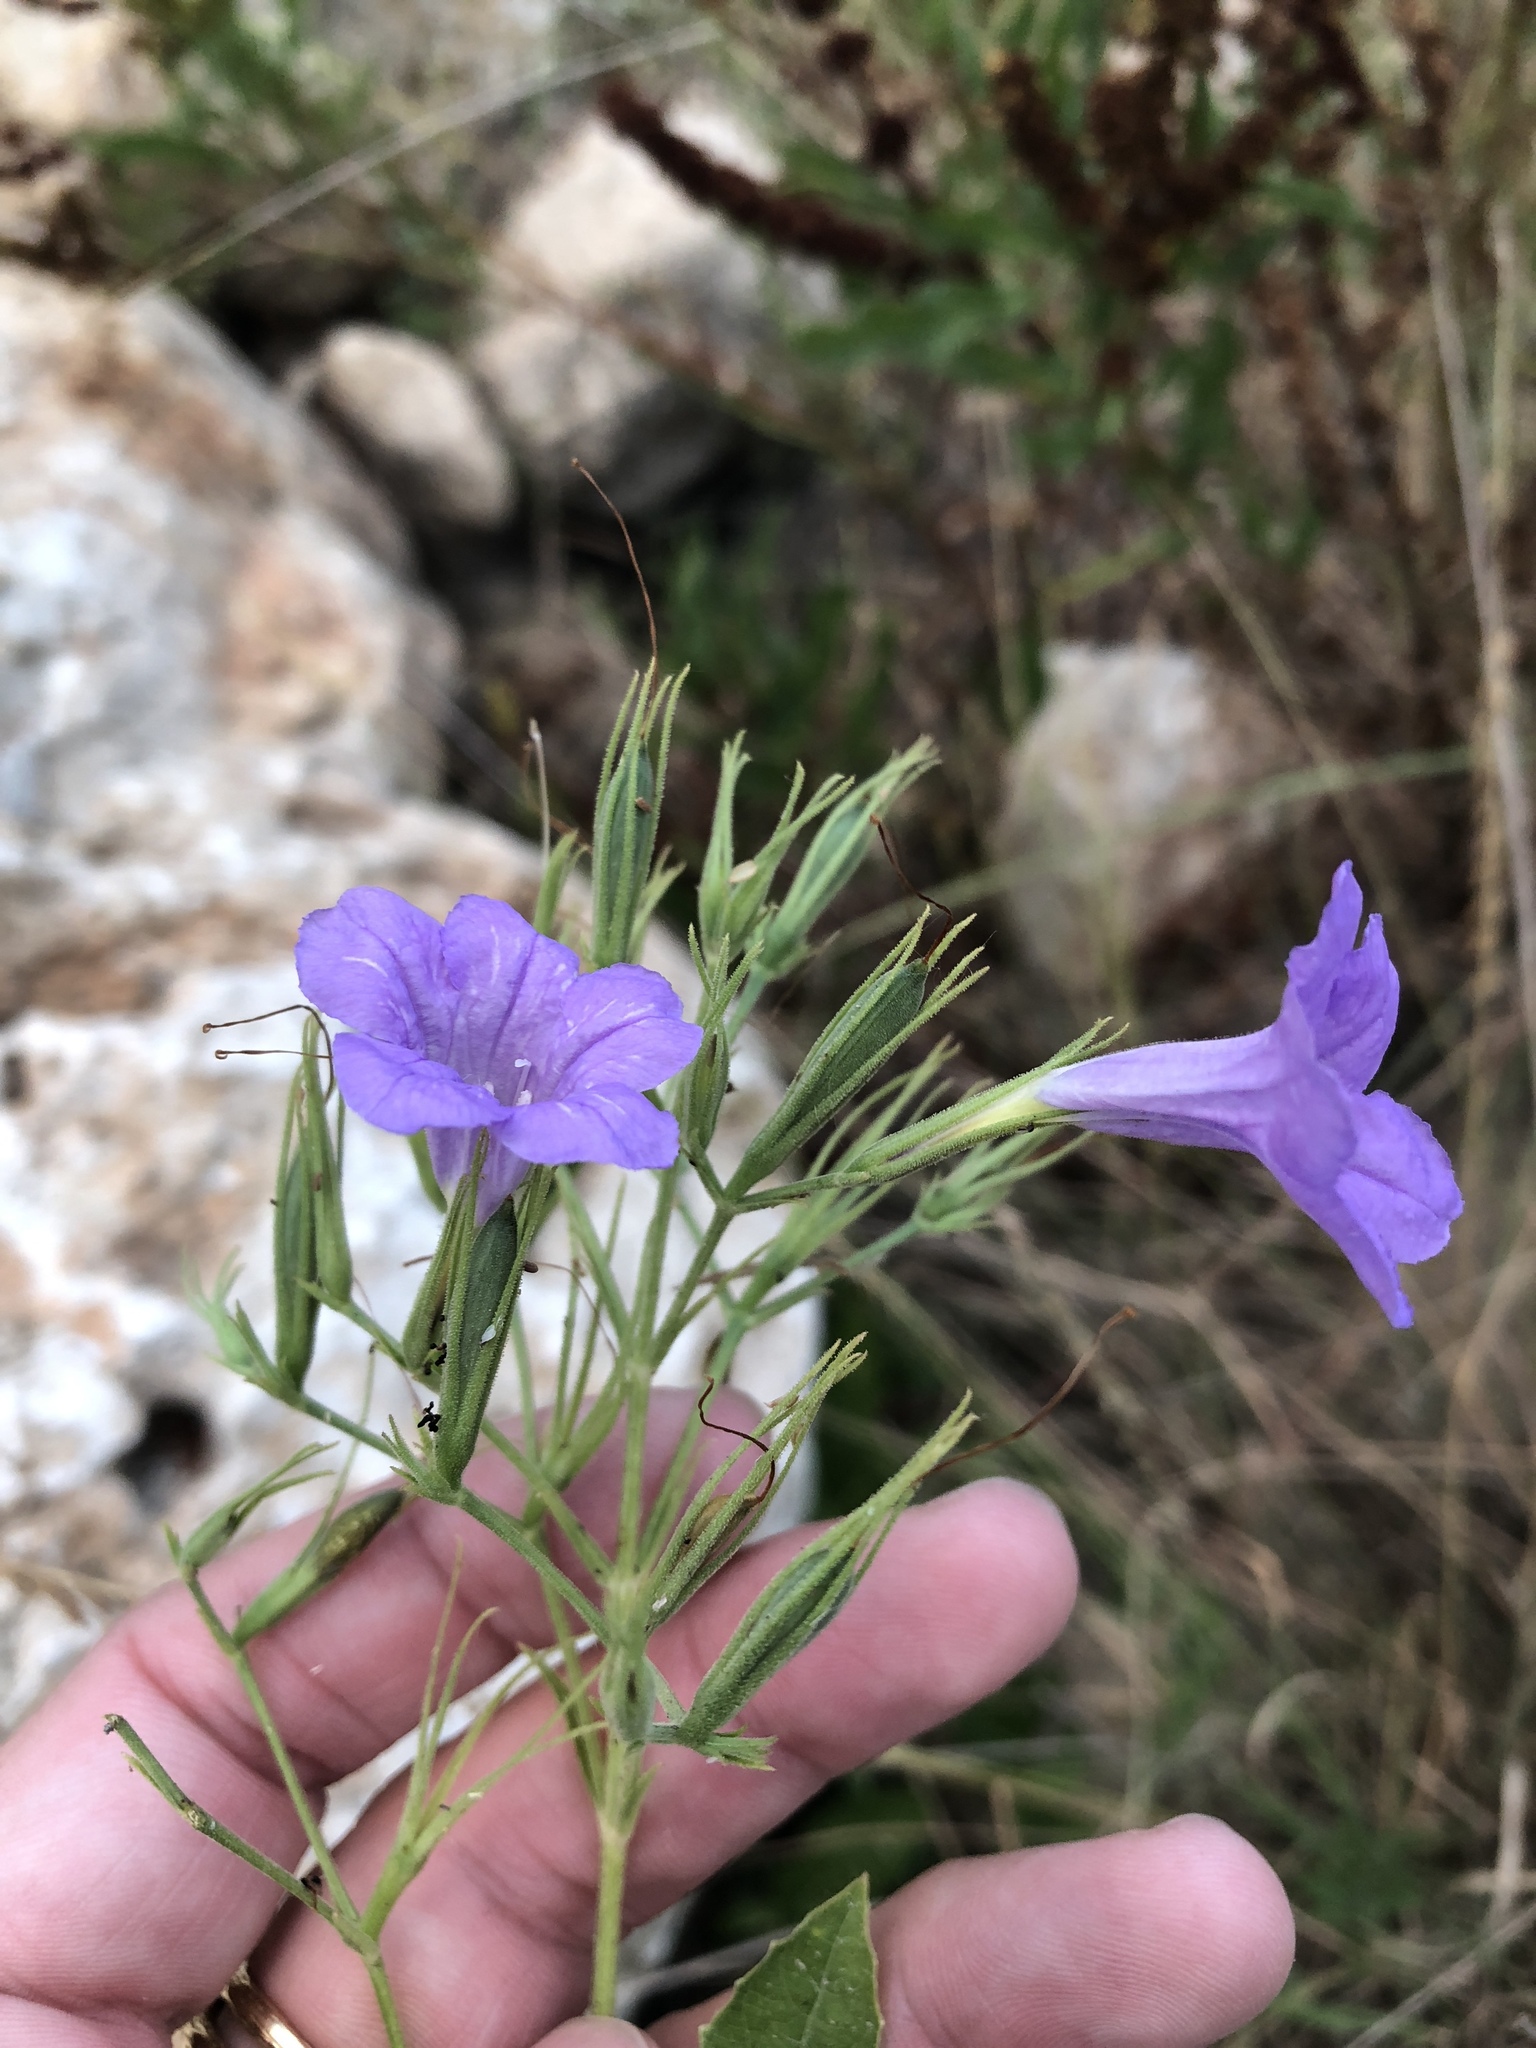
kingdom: Plantae
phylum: Tracheophyta
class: Magnoliopsida
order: Lamiales
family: Acanthaceae
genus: Ruellia
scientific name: Ruellia ciliatiflora
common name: Hairyflower wild petunia
